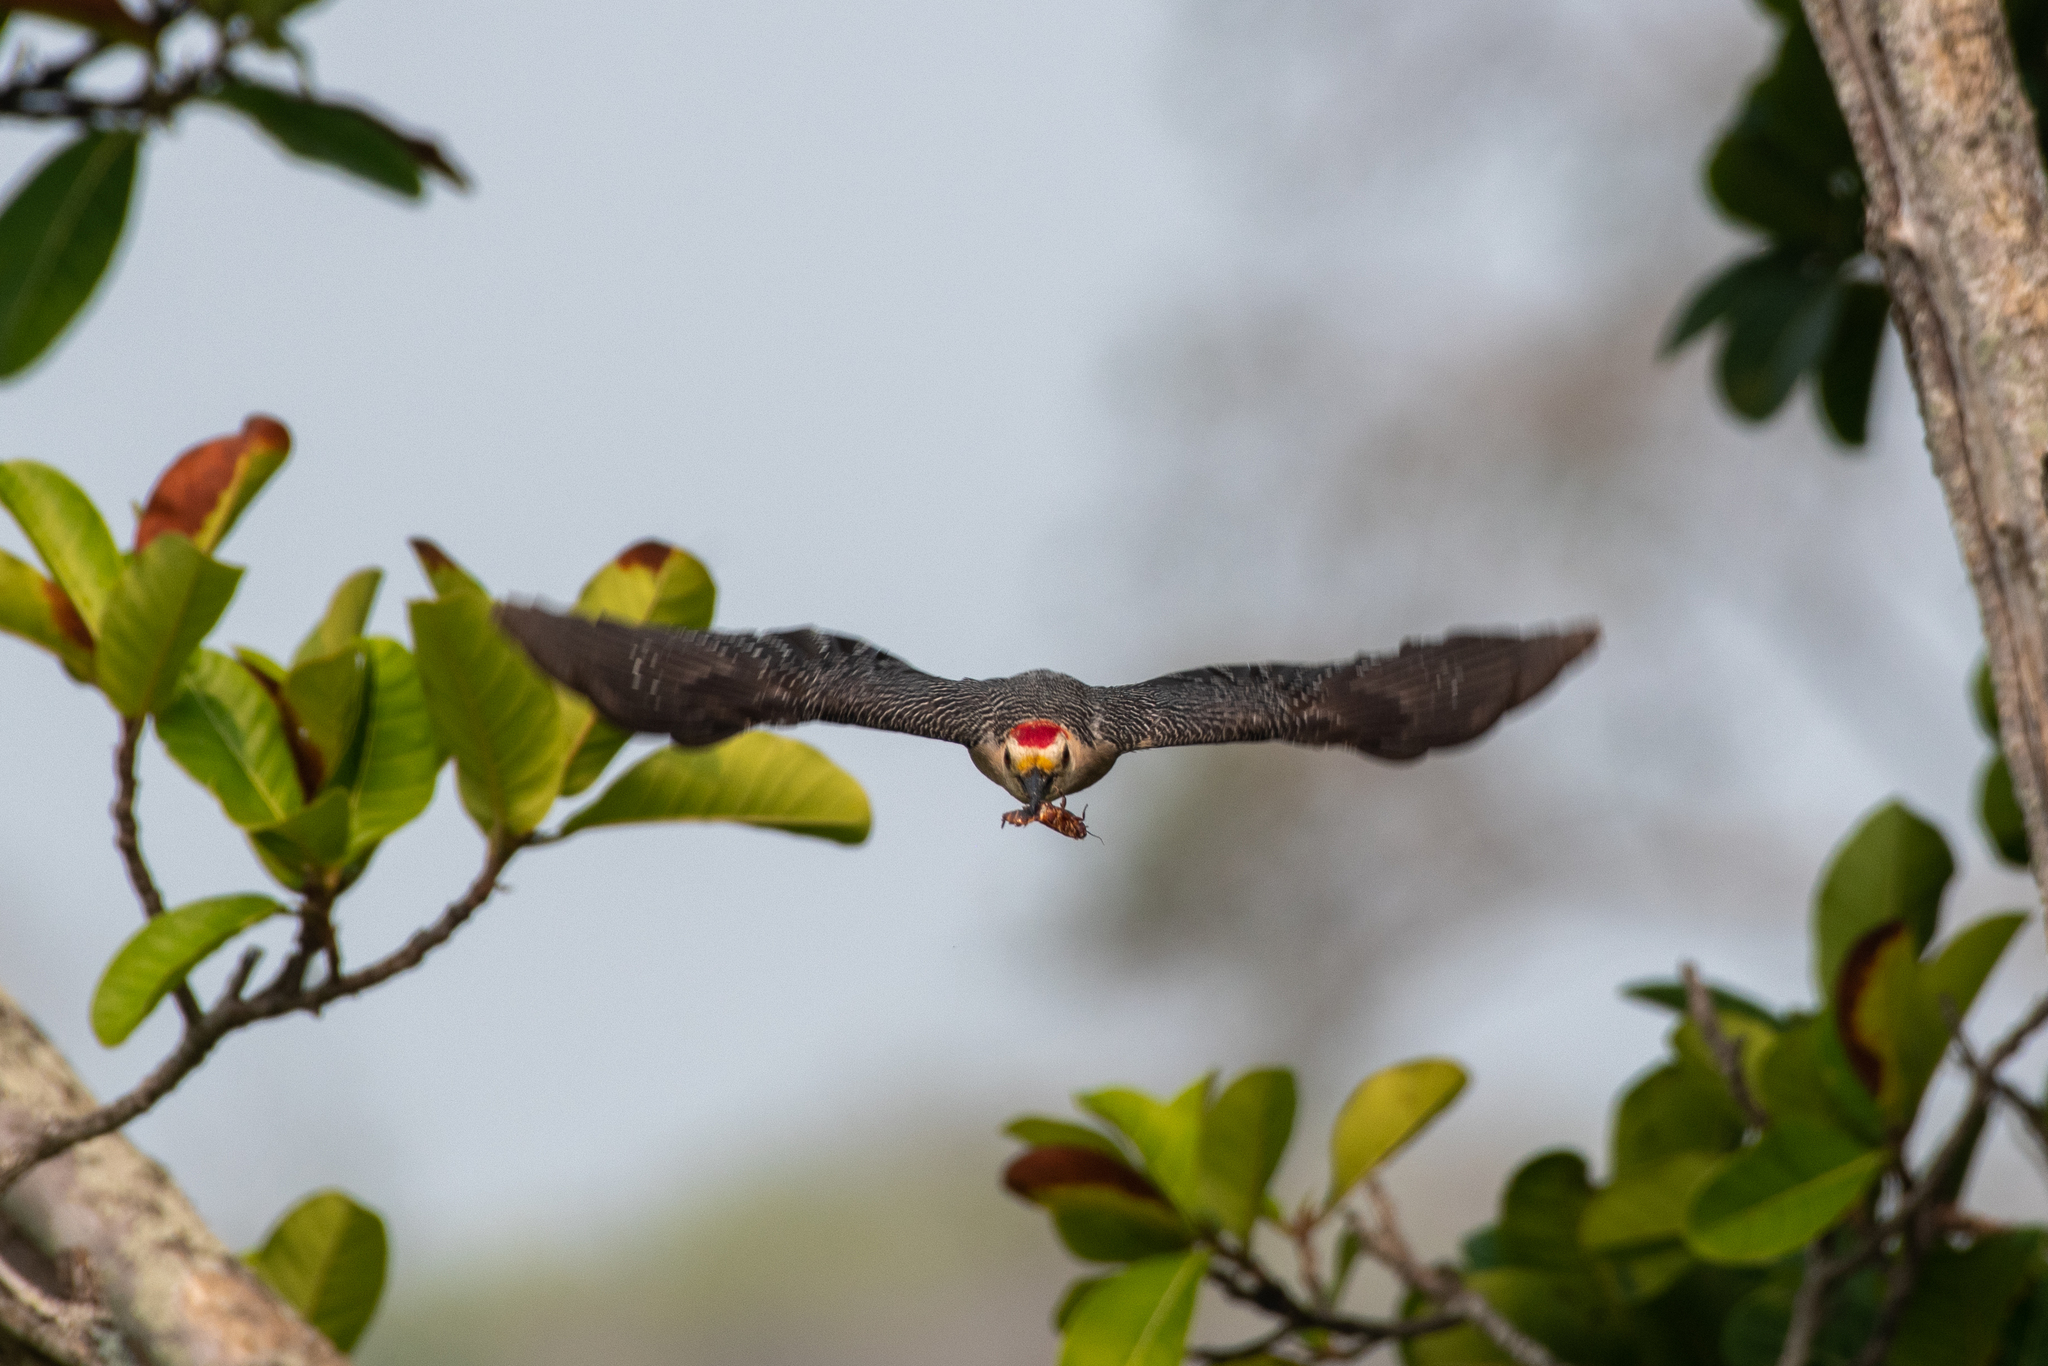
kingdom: Animalia
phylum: Chordata
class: Aves
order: Piciformes
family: Picidae
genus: Melanerpes
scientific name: Melanerpes santacruzi
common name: Velasquez's woodpecker
